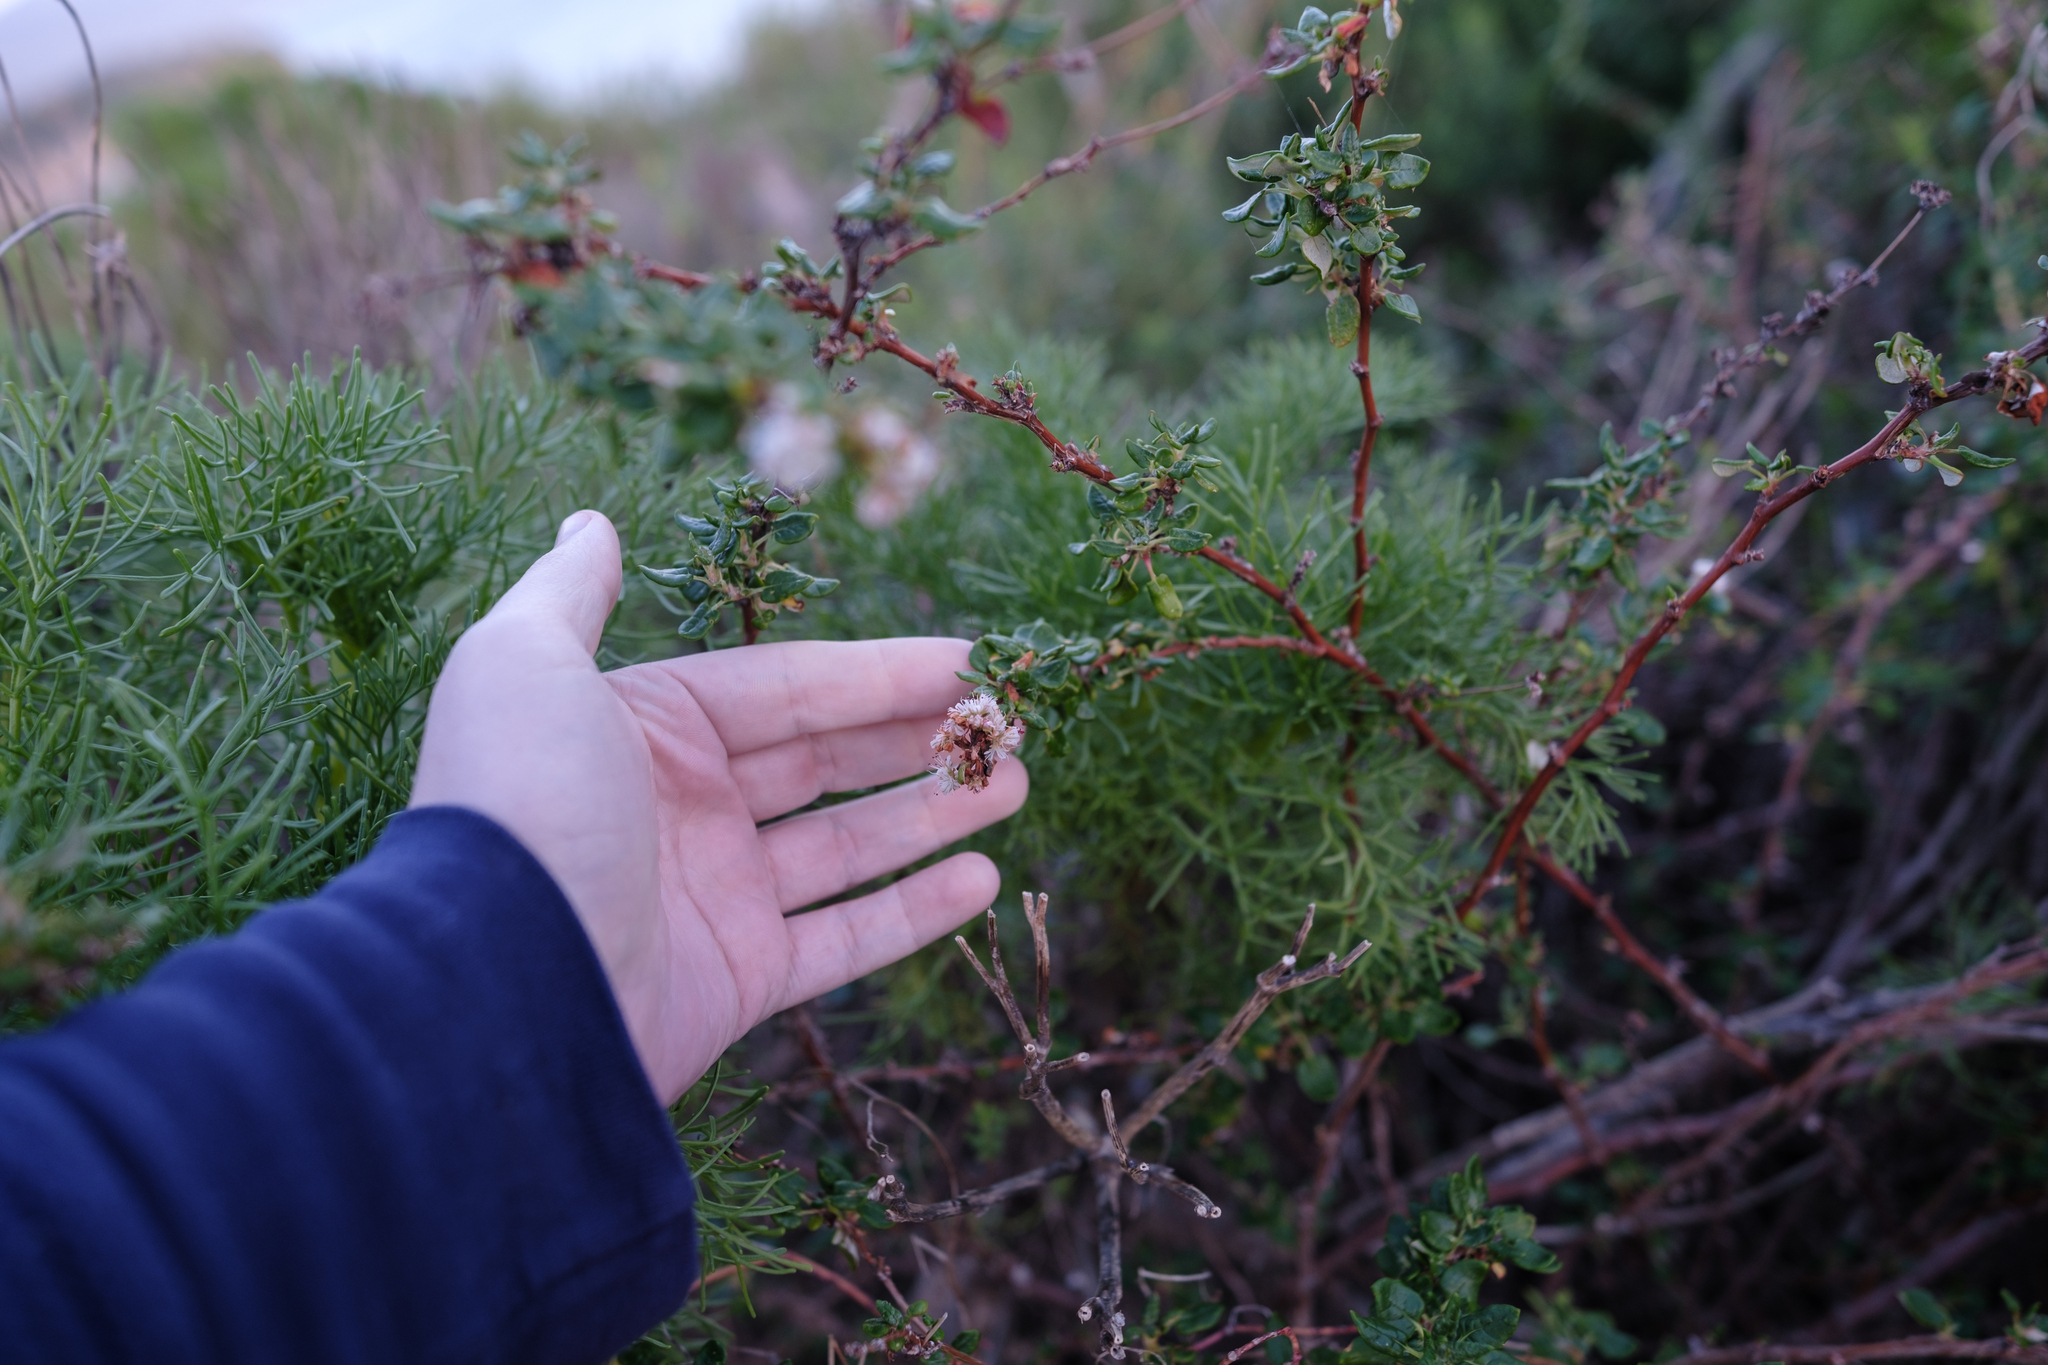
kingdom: Plantae
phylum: Tracheophyta
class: Magnoliopsida
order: Caryophyllales
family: Polygonaceae
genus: Eriogonum
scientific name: Eriogonum parvifolium
